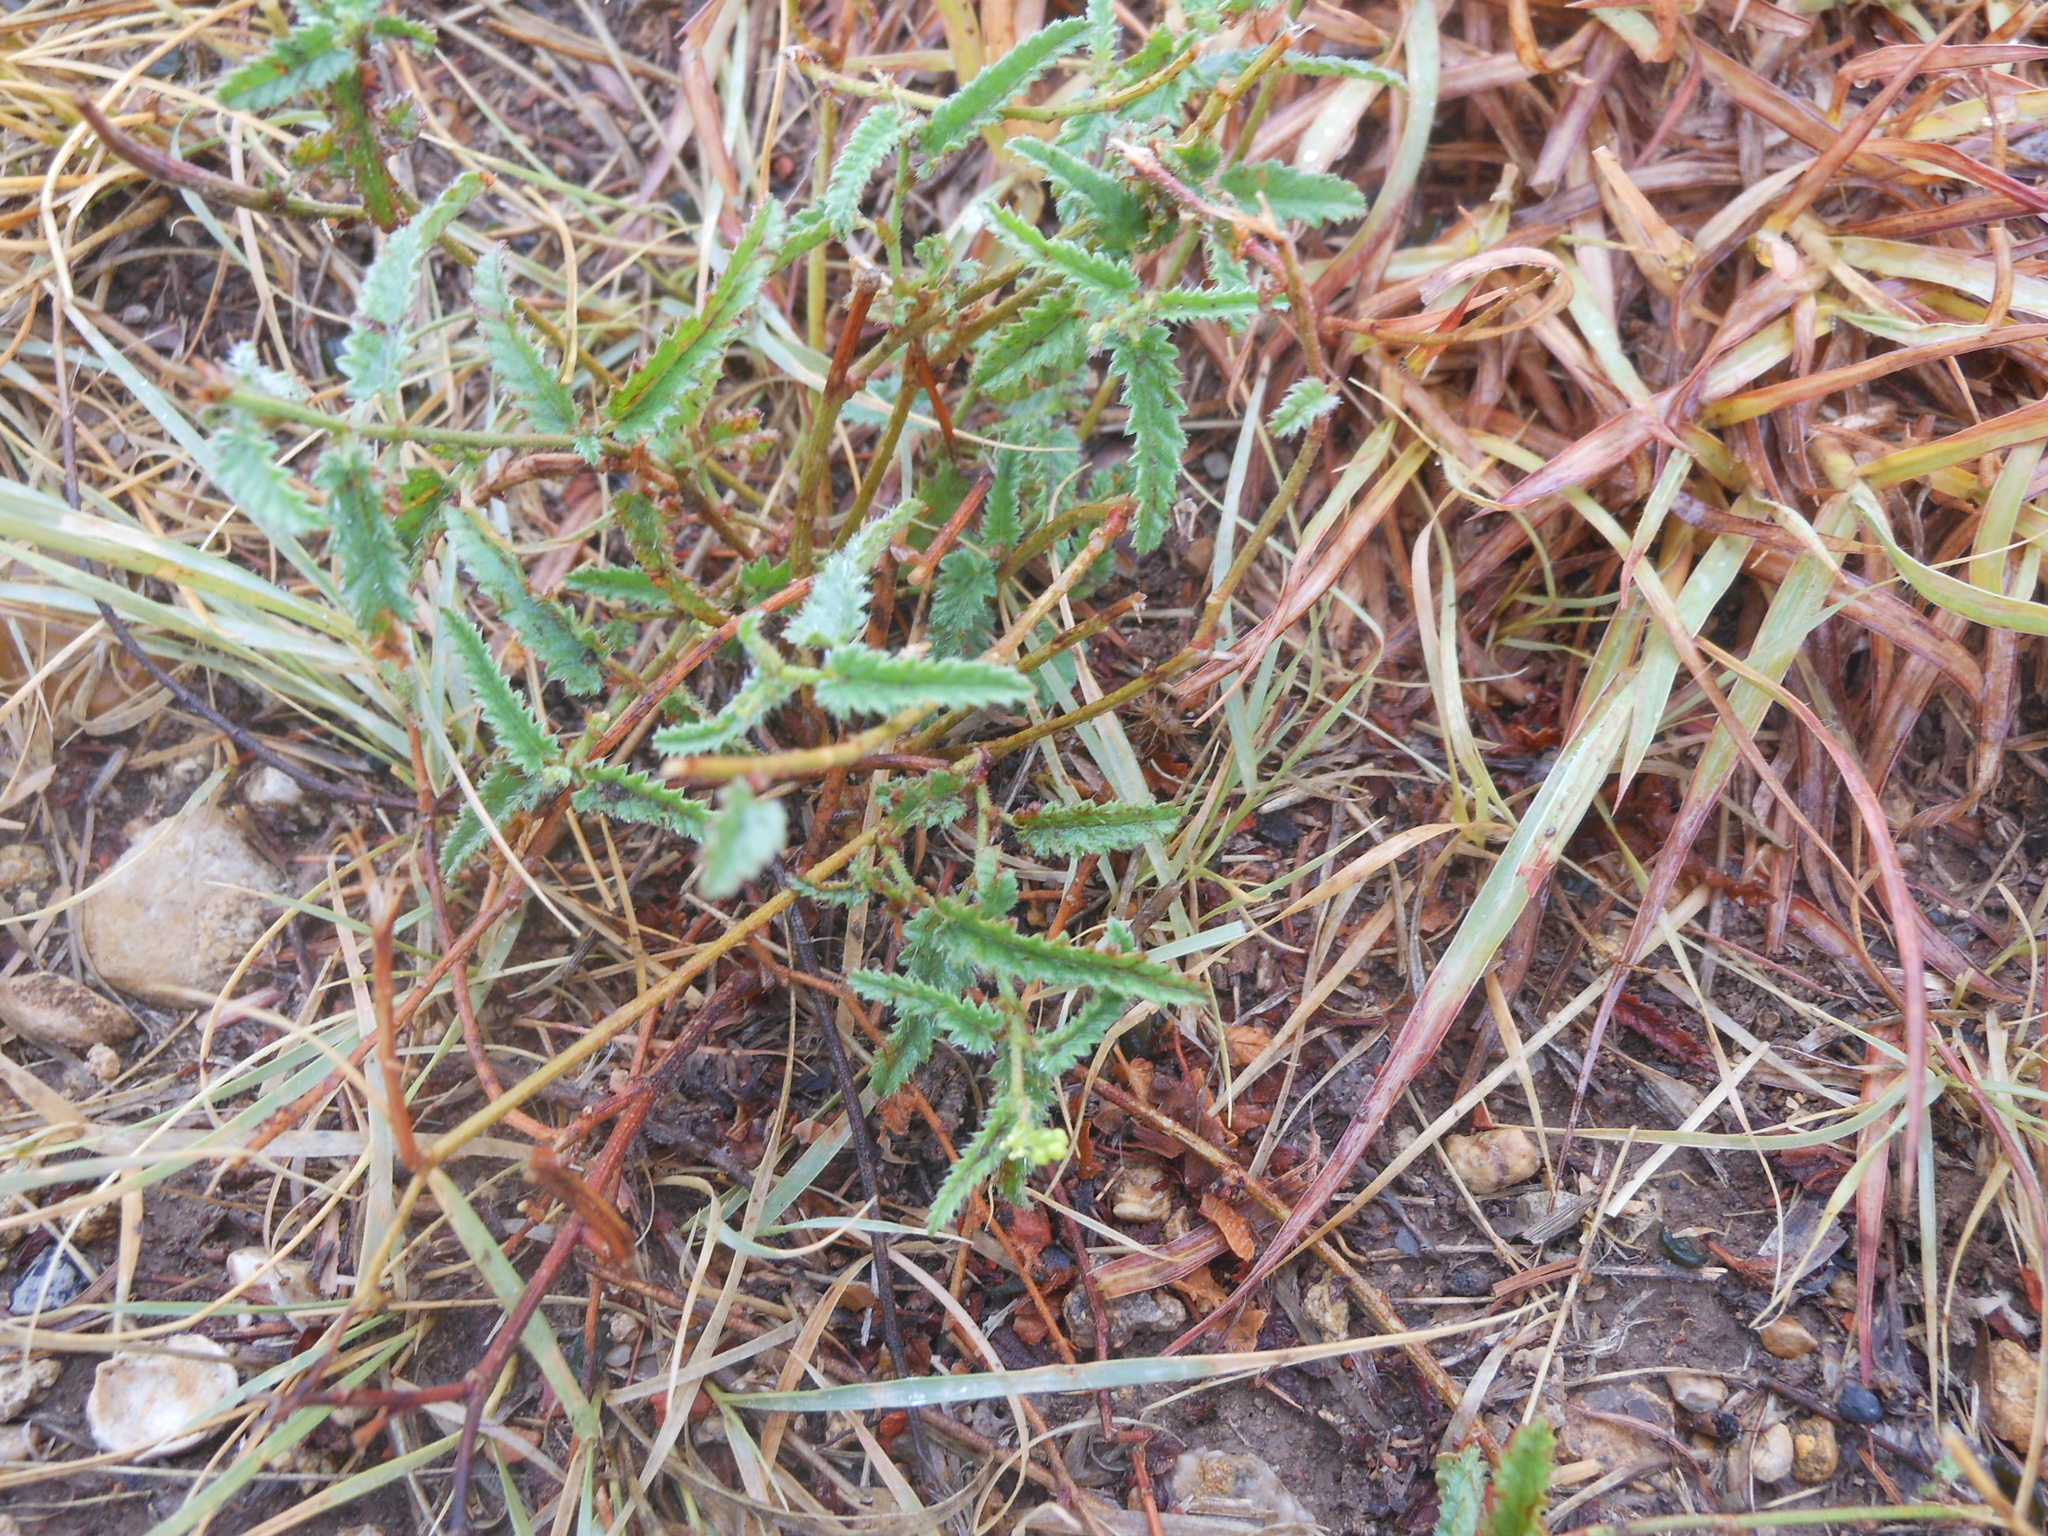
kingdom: Plantae
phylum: Tracheophyta
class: Magnoliopsida
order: Malpighiales
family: Euphorbiaceae
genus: Tragia
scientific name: Tragia ramosa
